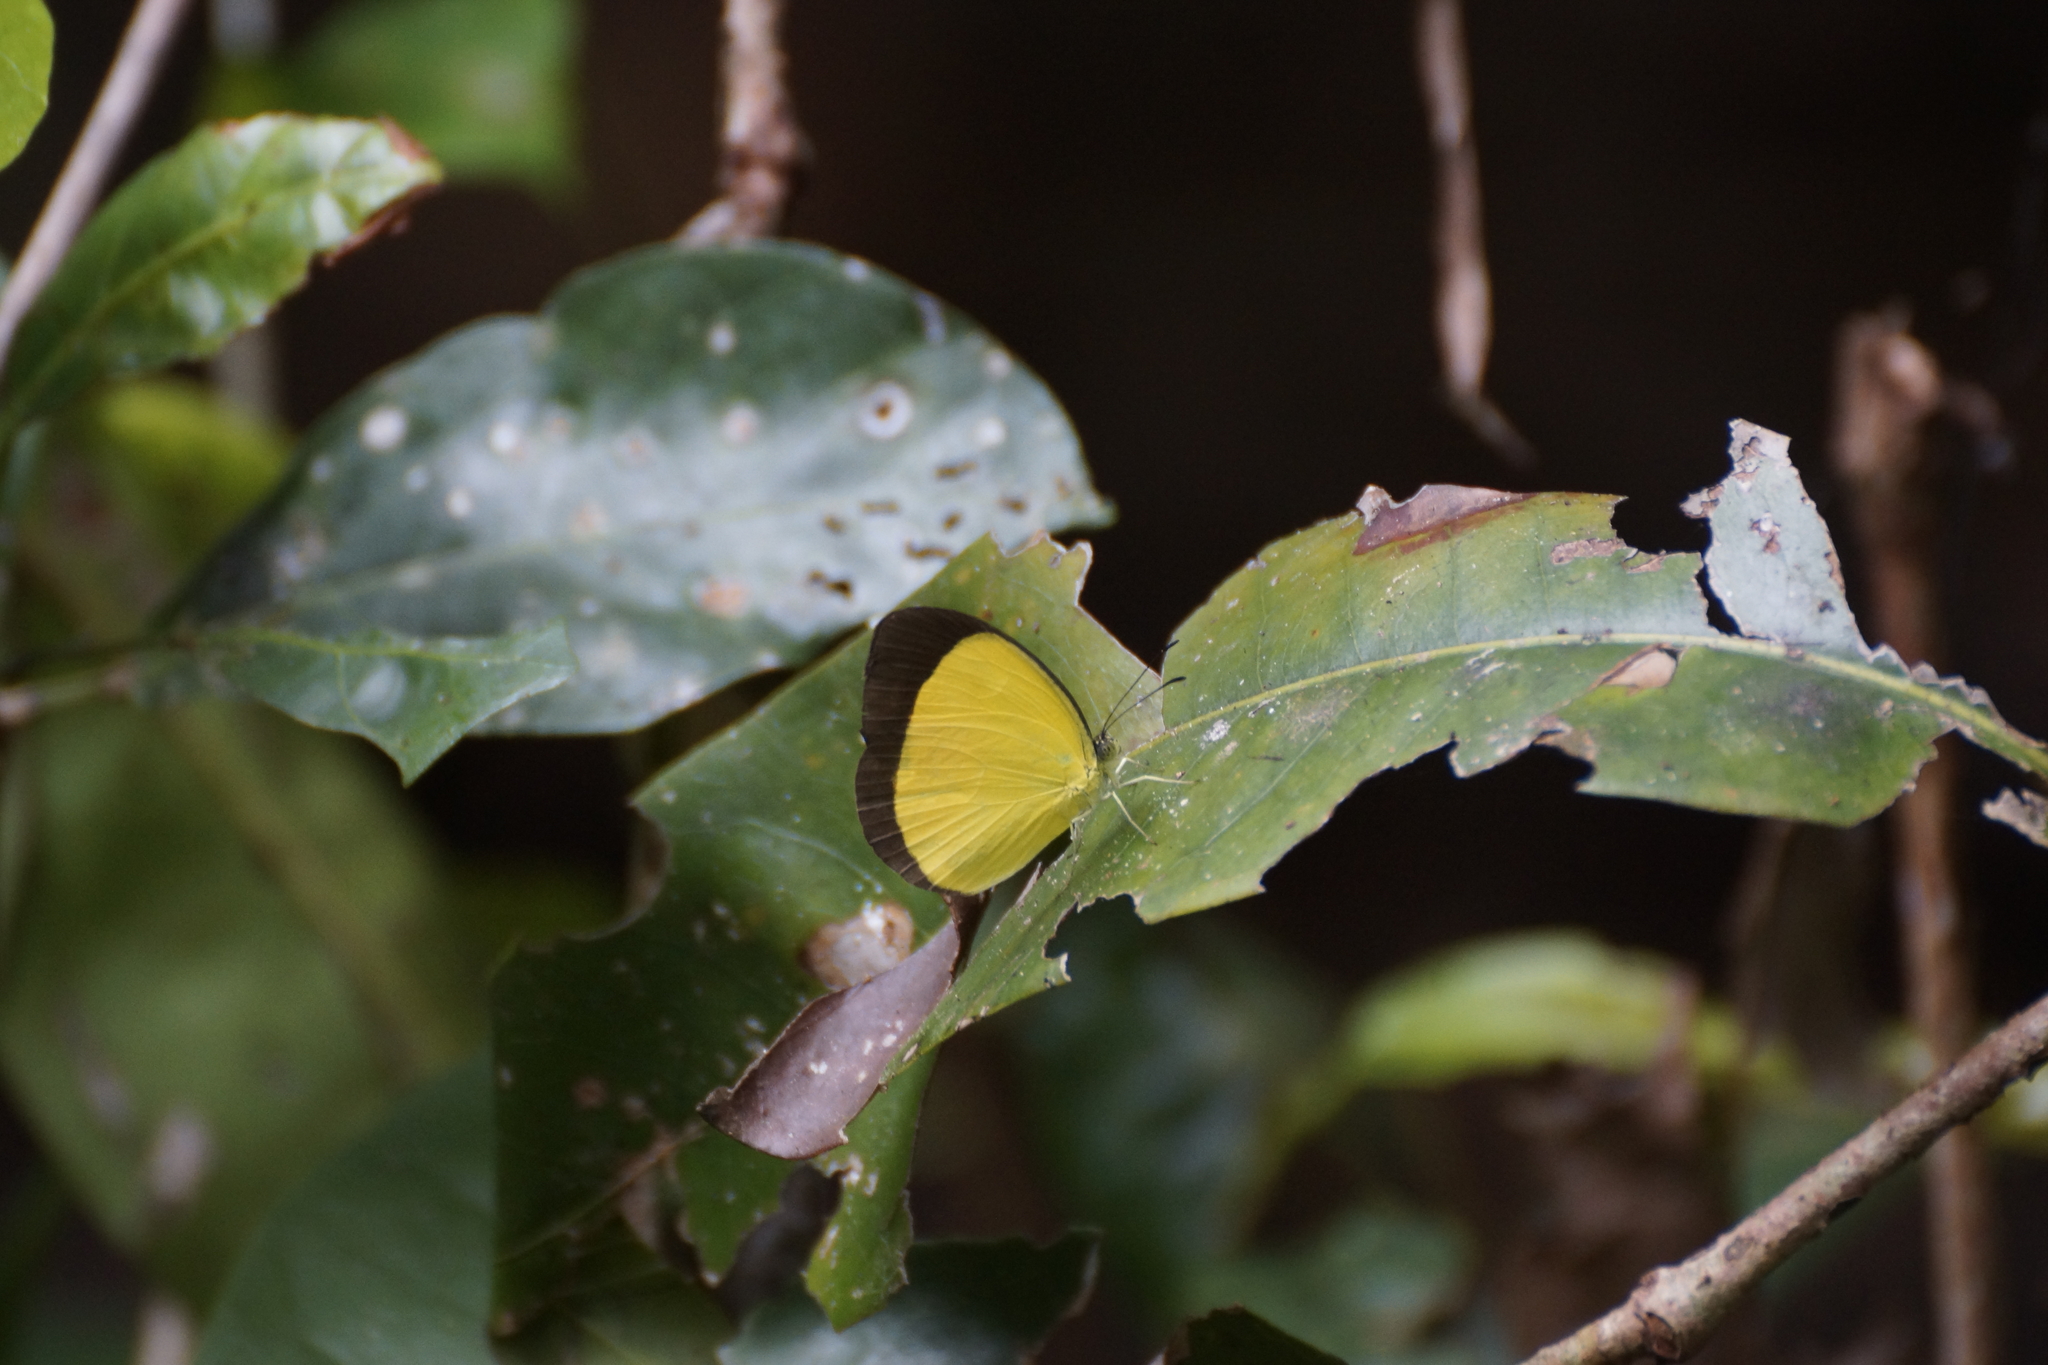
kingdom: Animalia
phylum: Arthropoda
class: Insecta
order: Lepidoptera
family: Pieridae
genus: Eurema
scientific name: Eurema puella
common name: Broad margined grass yellow
